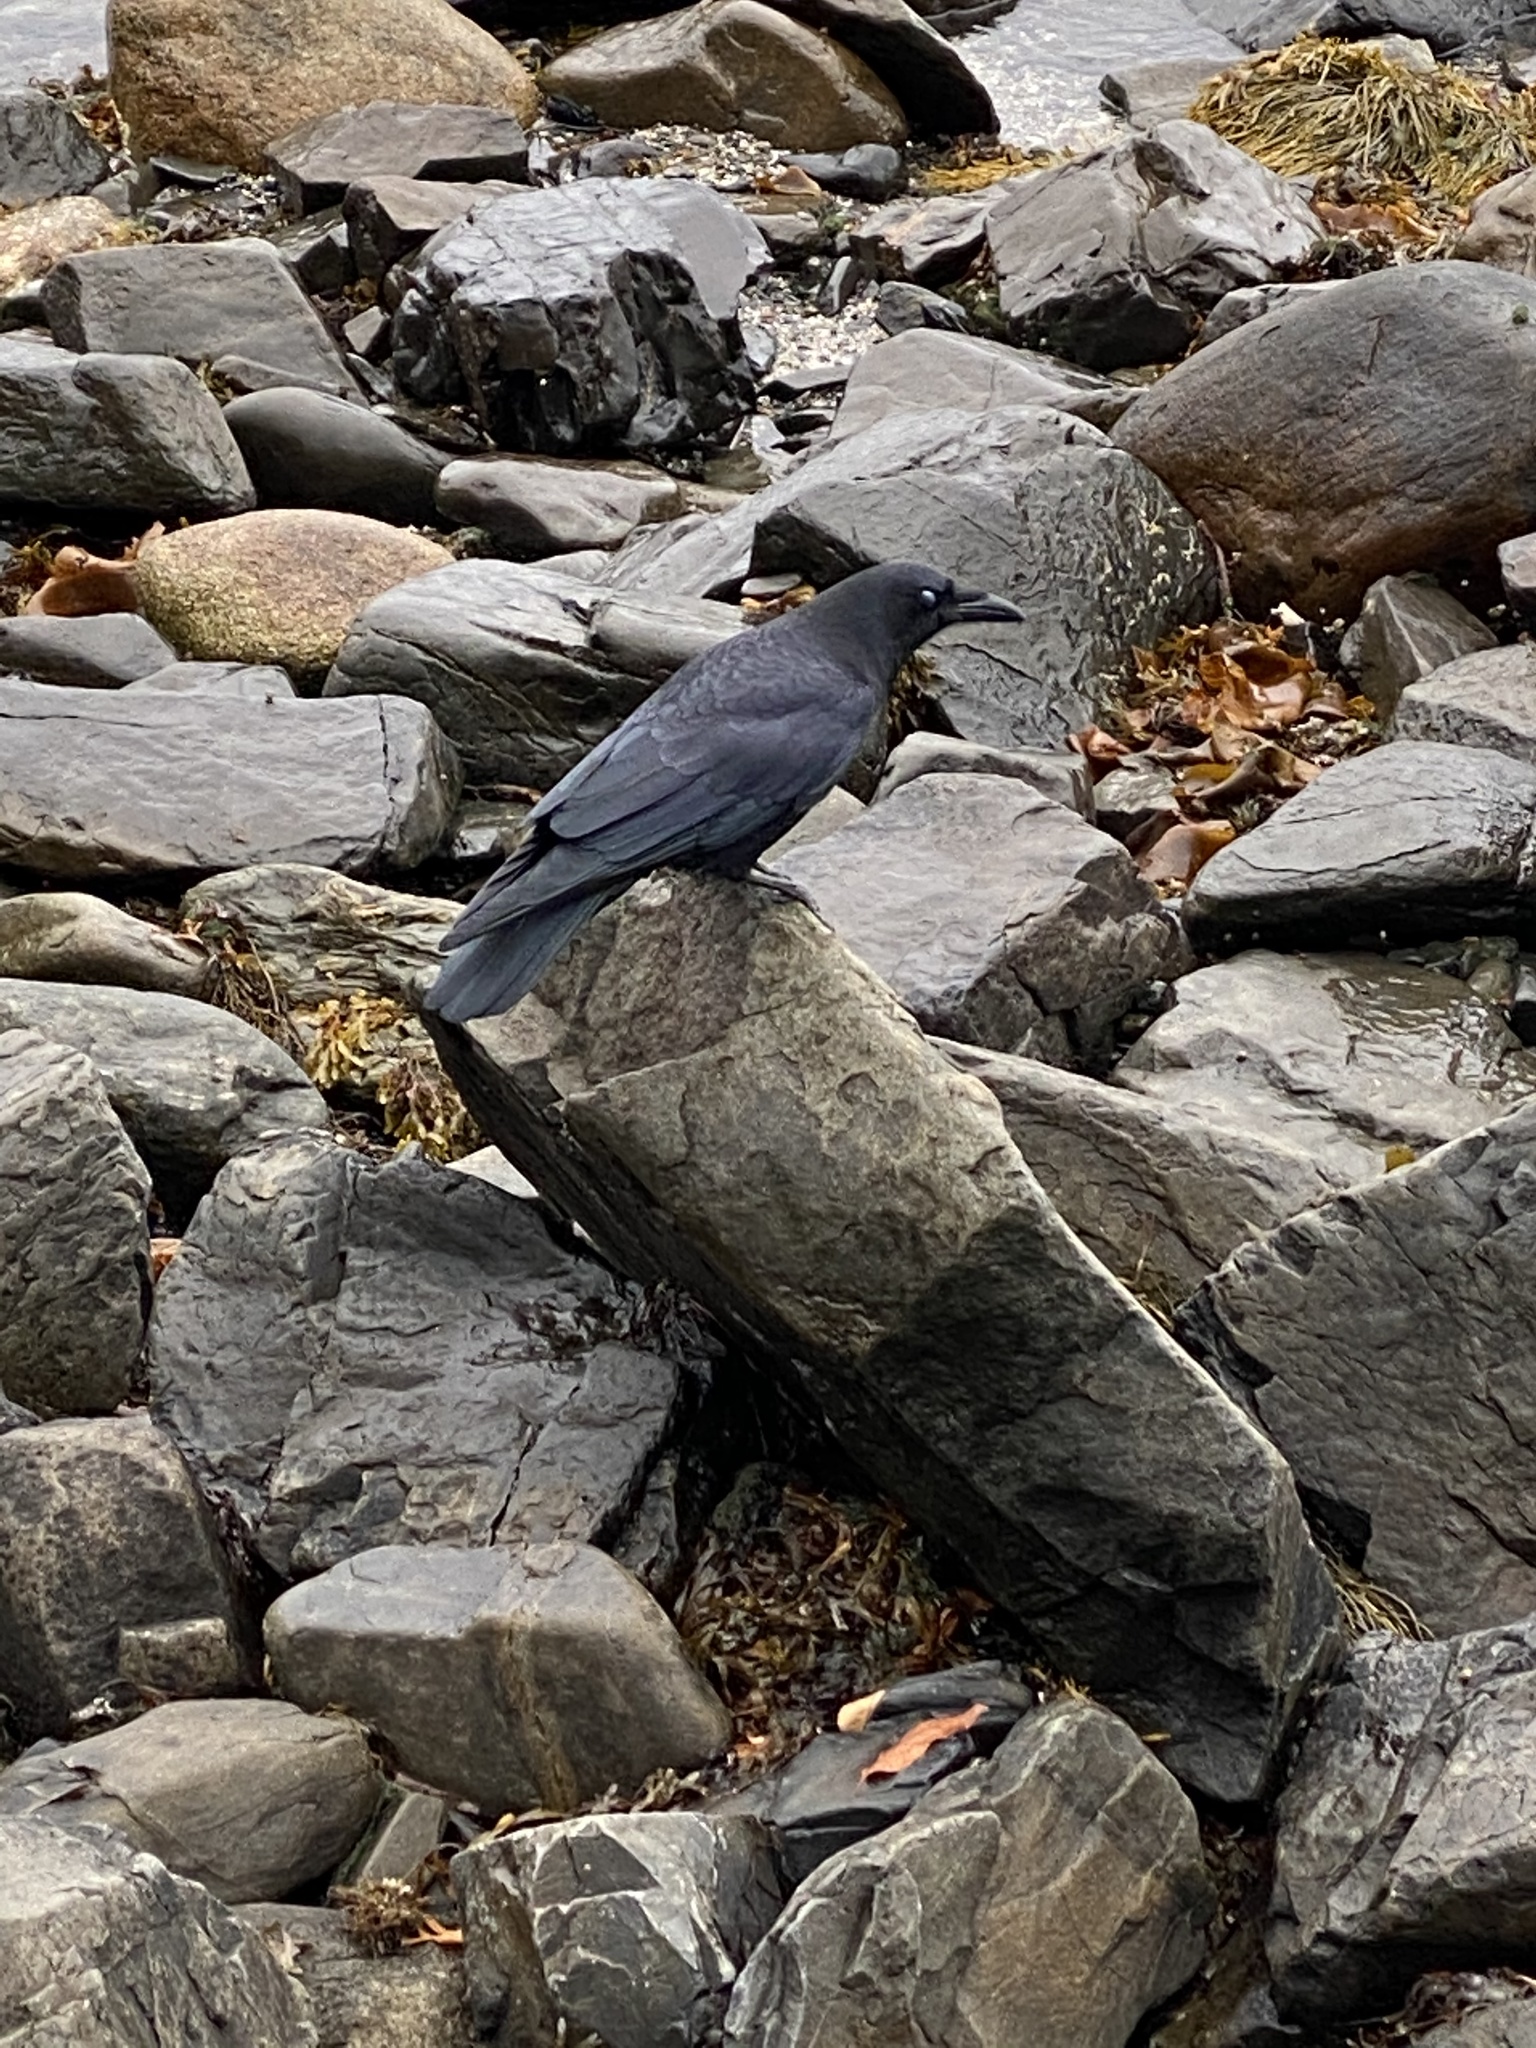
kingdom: Animalia
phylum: Chordata
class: Aves
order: Passeriformes
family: Corvidae
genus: Corvus
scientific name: Corvus brachyrhynchos
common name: American crow
